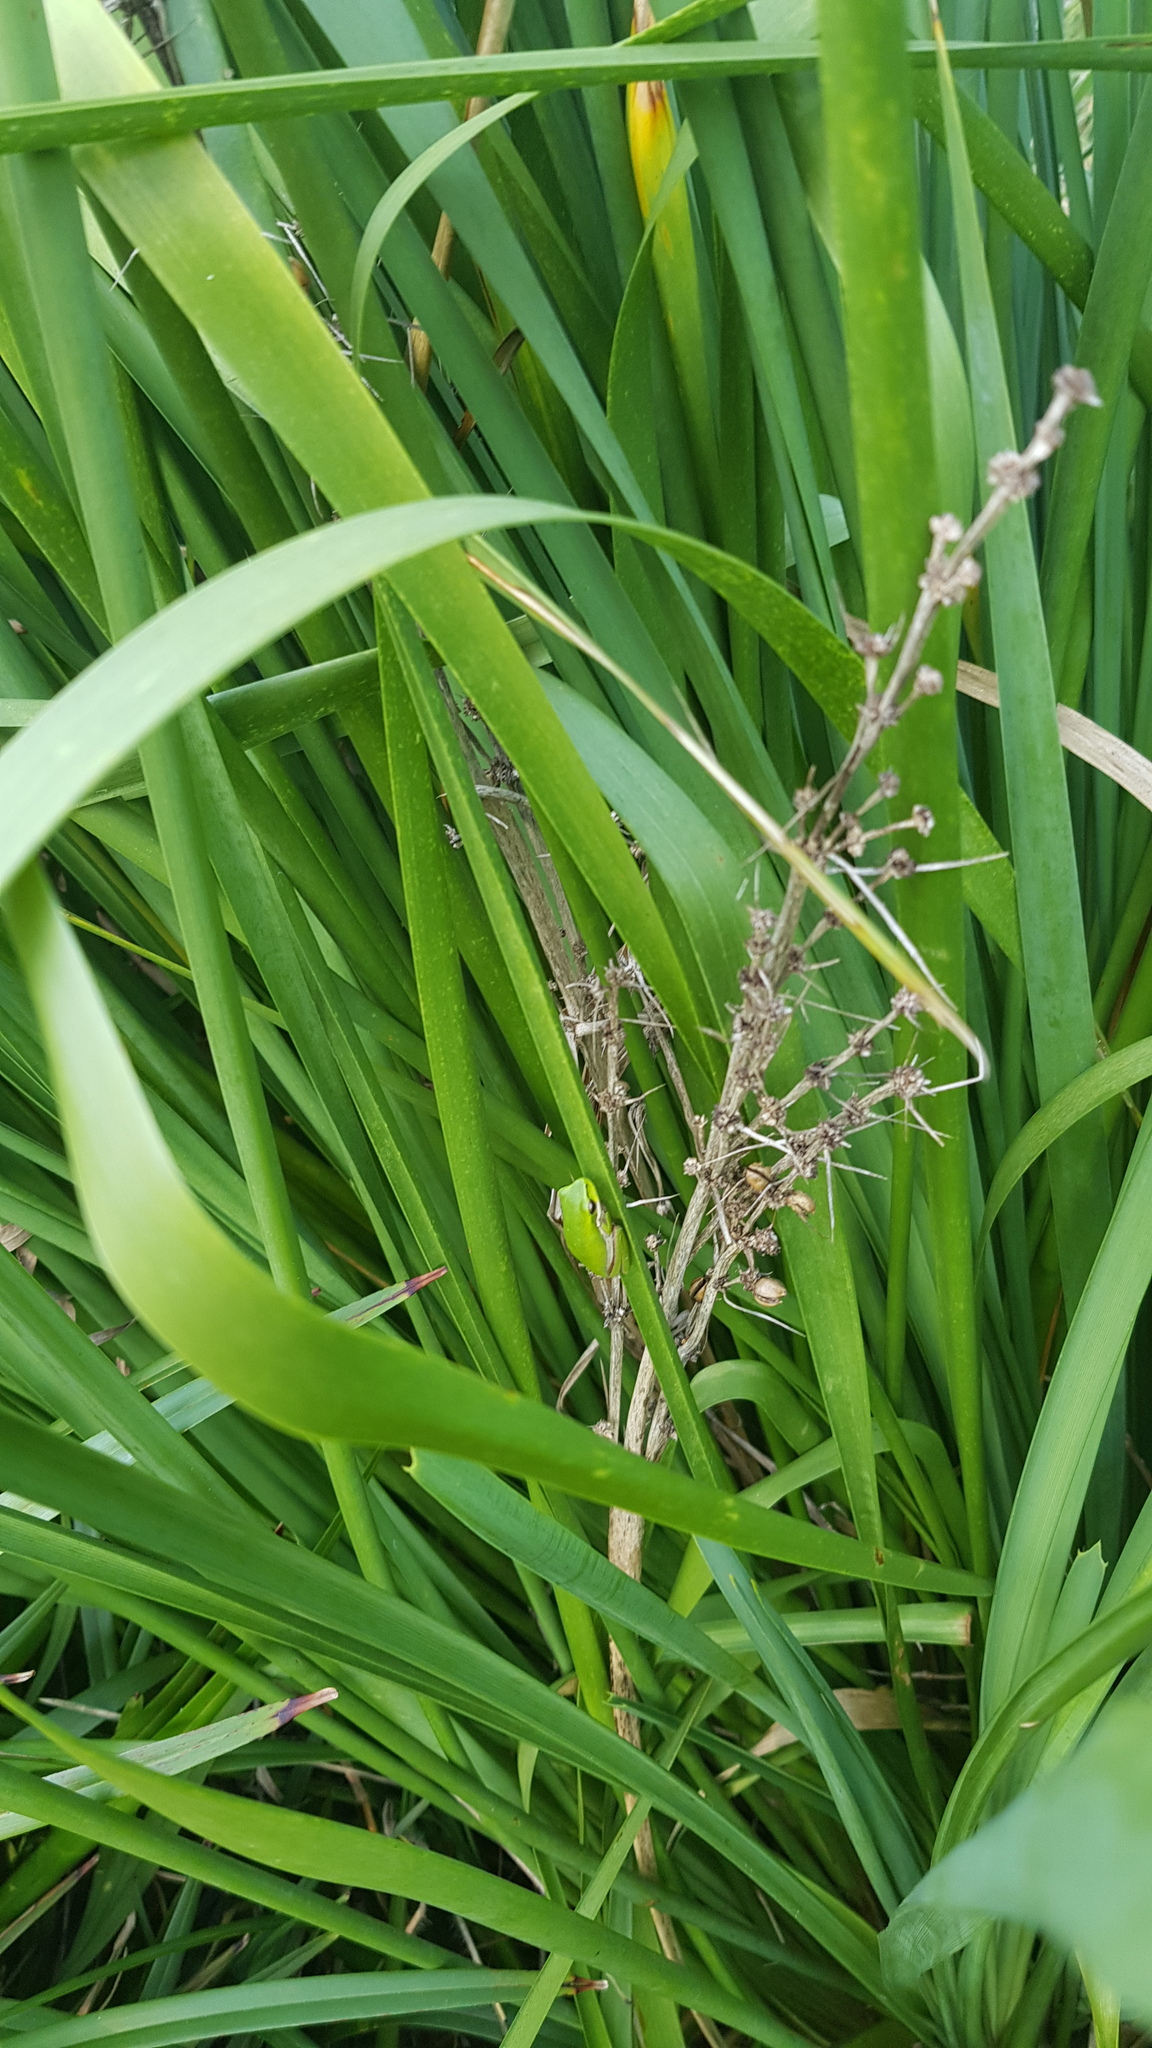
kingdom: Animalia
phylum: Chordata
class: Amphibia
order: Anura
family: Pelodryadidae
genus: Litoria
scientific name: Litoria fallax
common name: Eastern dwarf treefrog
